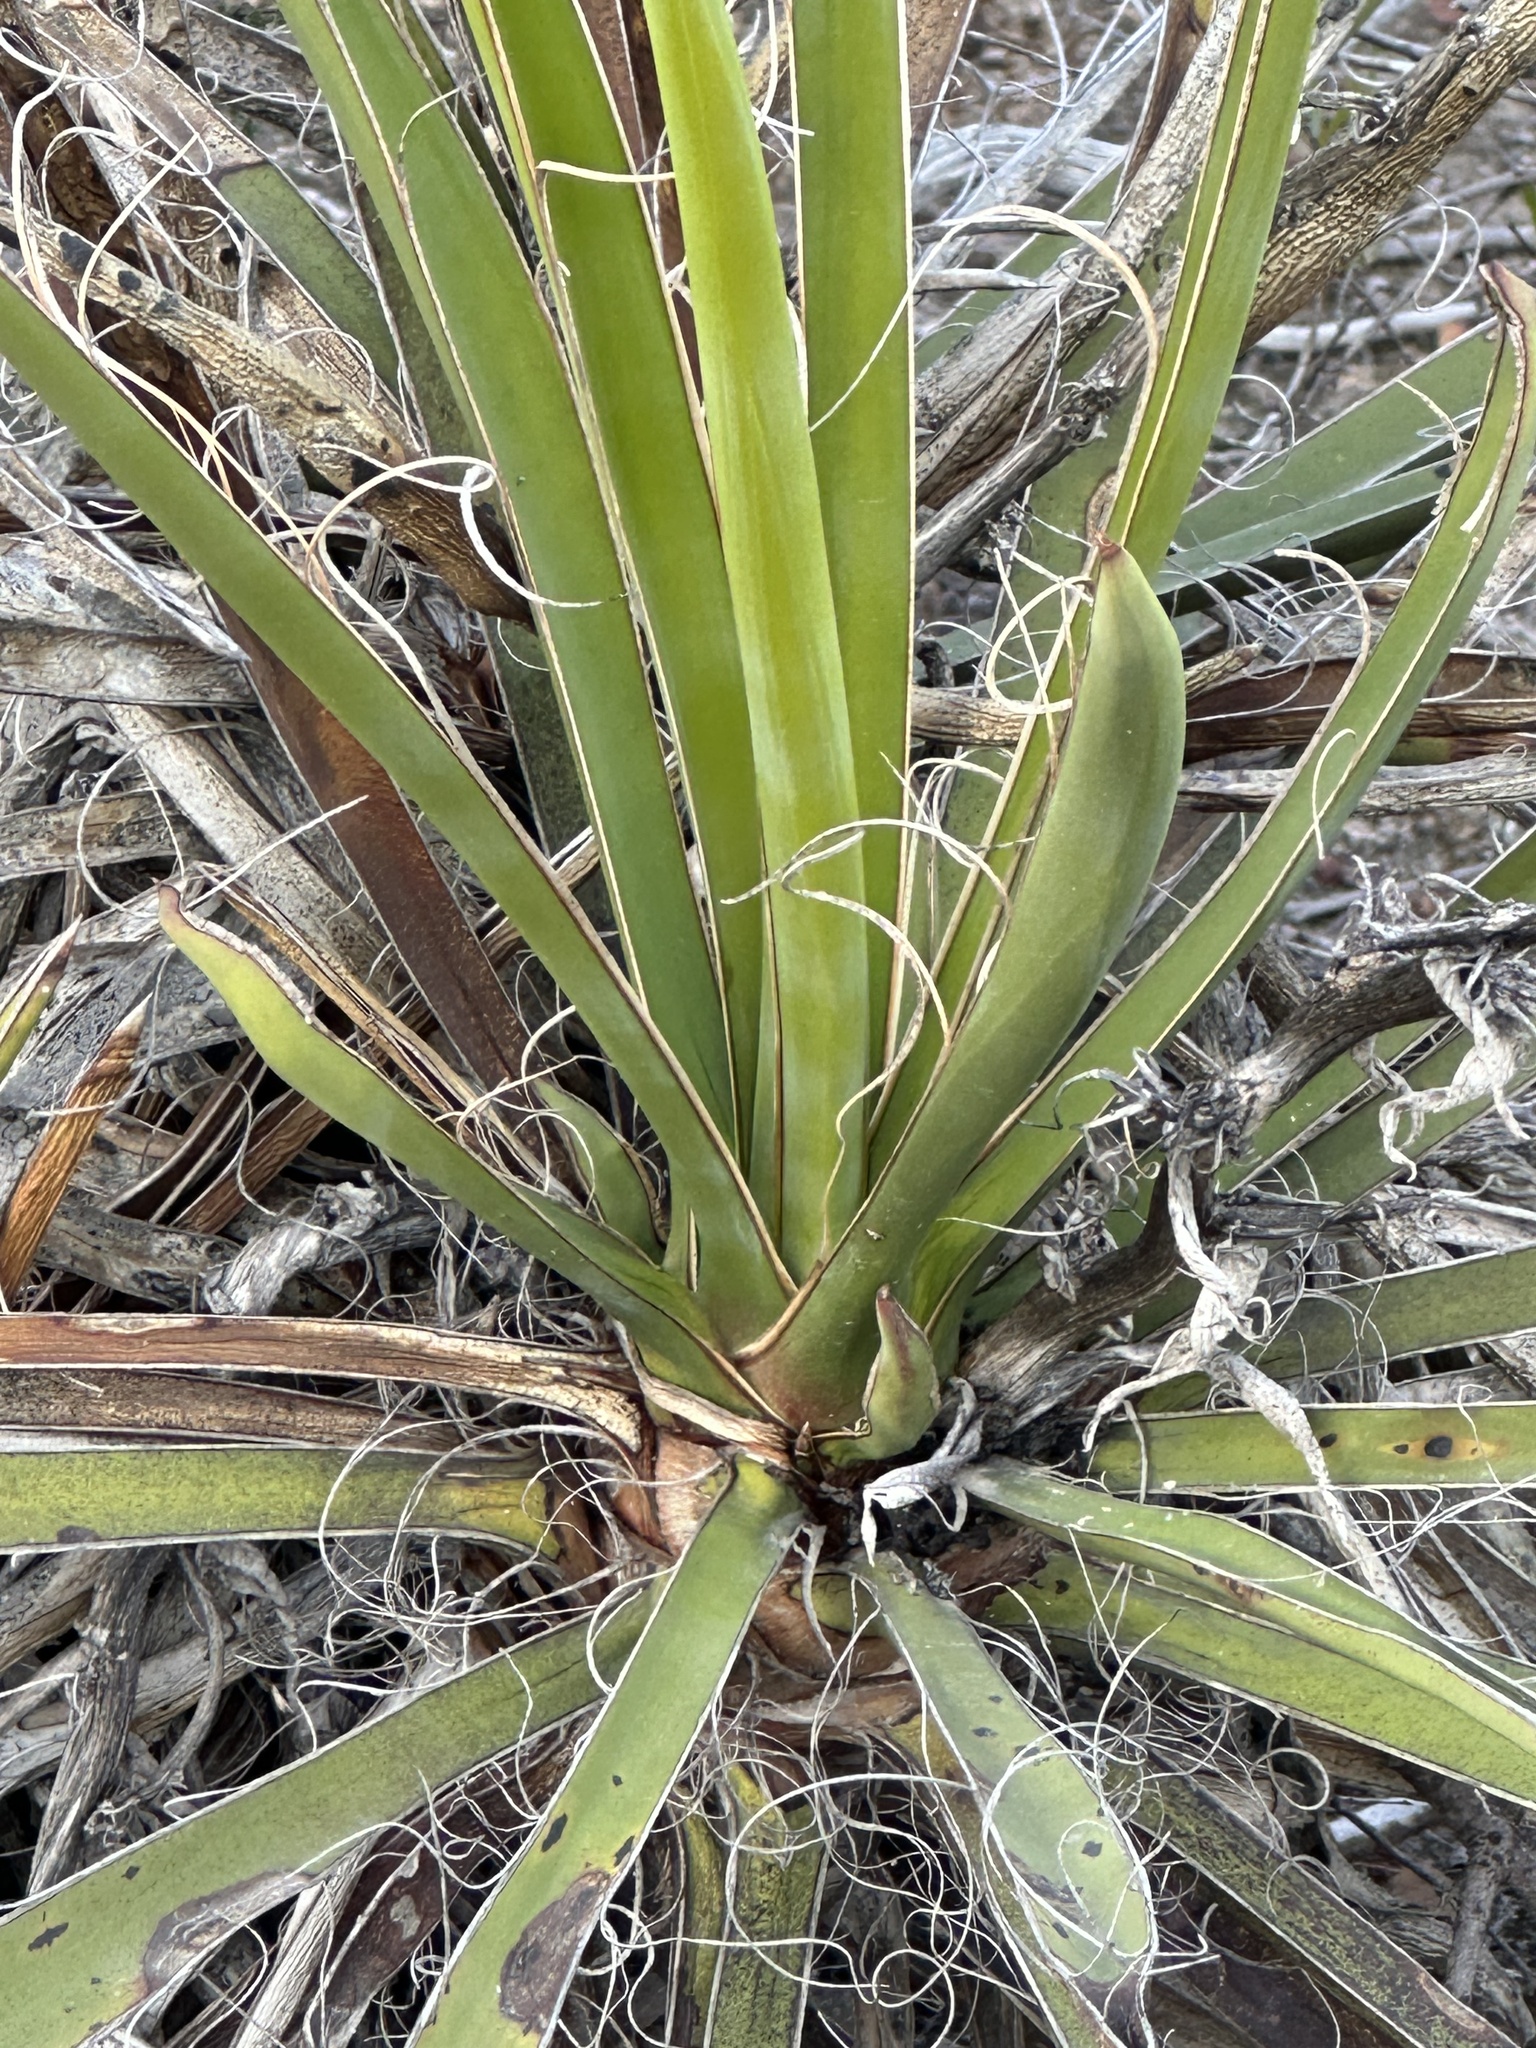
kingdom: Plantae
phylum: Tracheophyta
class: Liliopsida
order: Asparagales
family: Asparagaceae
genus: Yucca
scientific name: Yucca schidigera
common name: Mojave yucca
